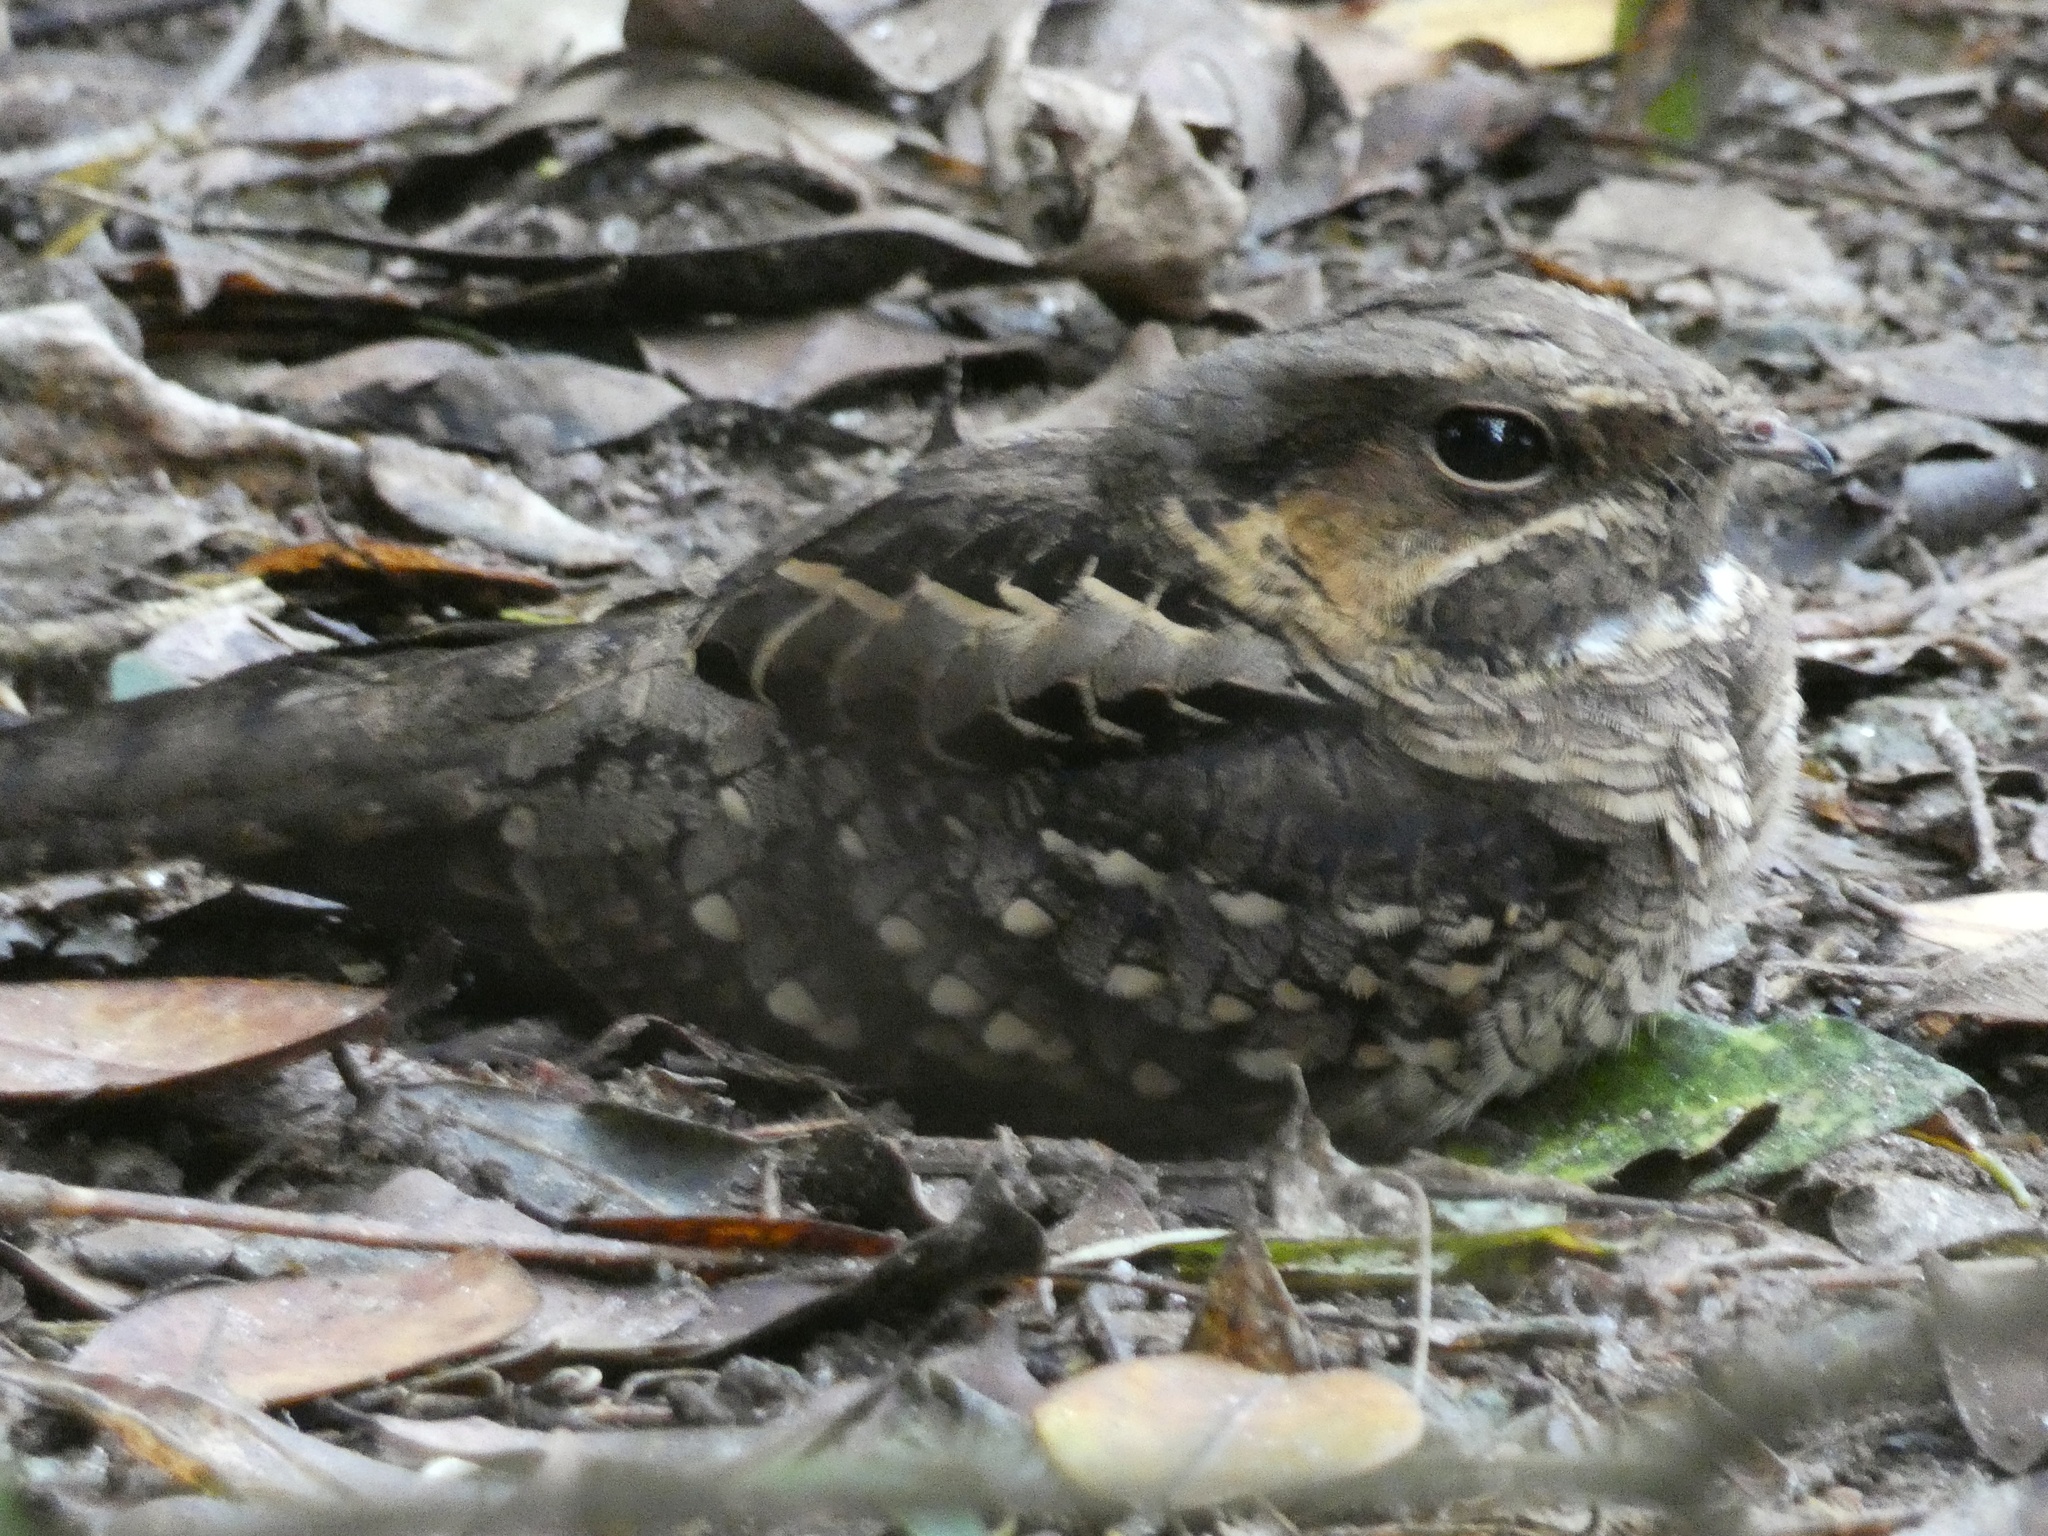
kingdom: Animalia
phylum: Chordata
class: Aves
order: Caprimulgiformes
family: Caprimulgidae
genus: Nyctidromus
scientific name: Nyctidromus albicollis
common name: Pauraque
